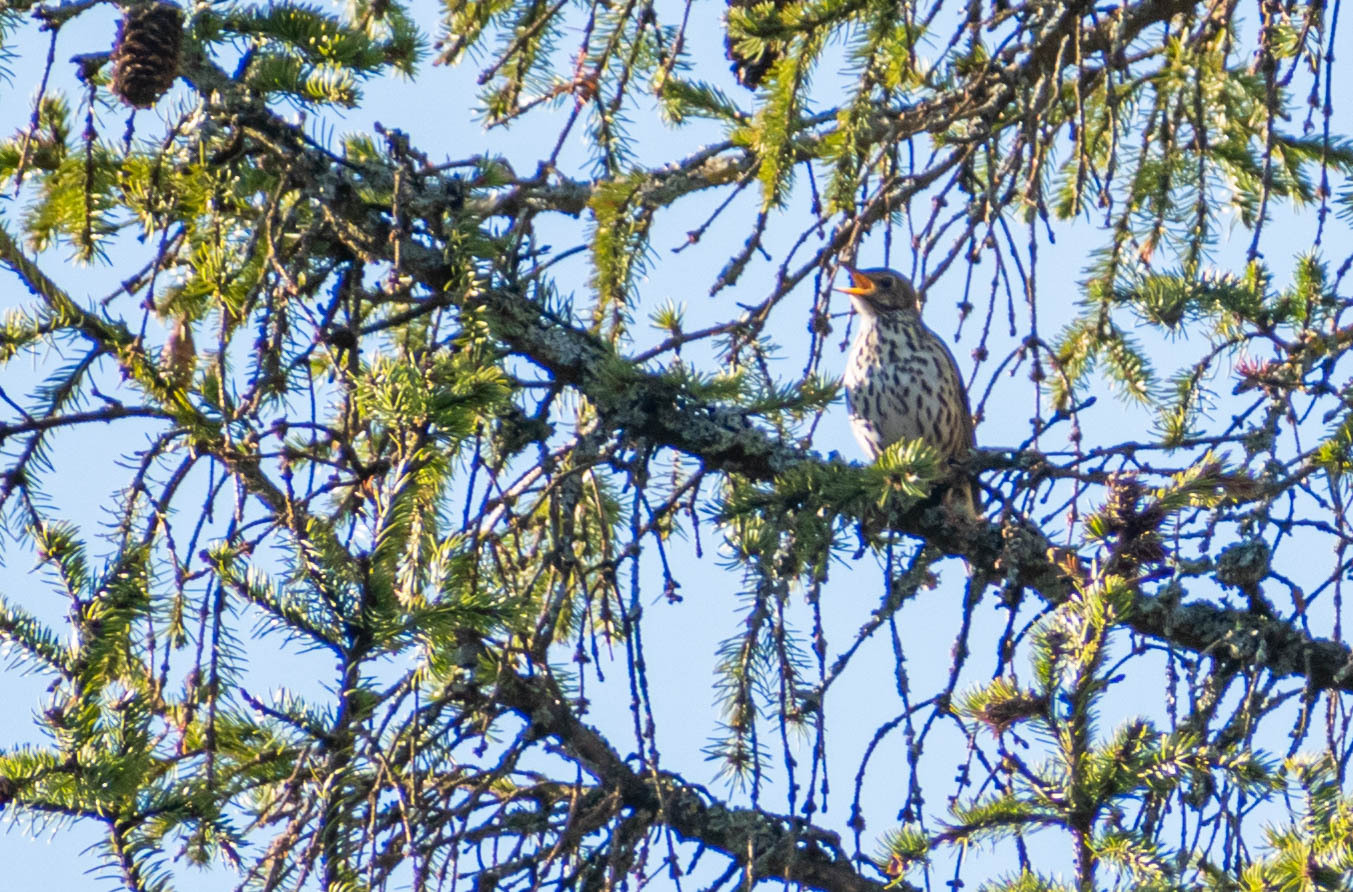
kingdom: Animalia
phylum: Chordata
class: Aves
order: Passeriformes
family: Turdidae
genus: Turdus
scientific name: Turdus philomelos
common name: Song thrush
